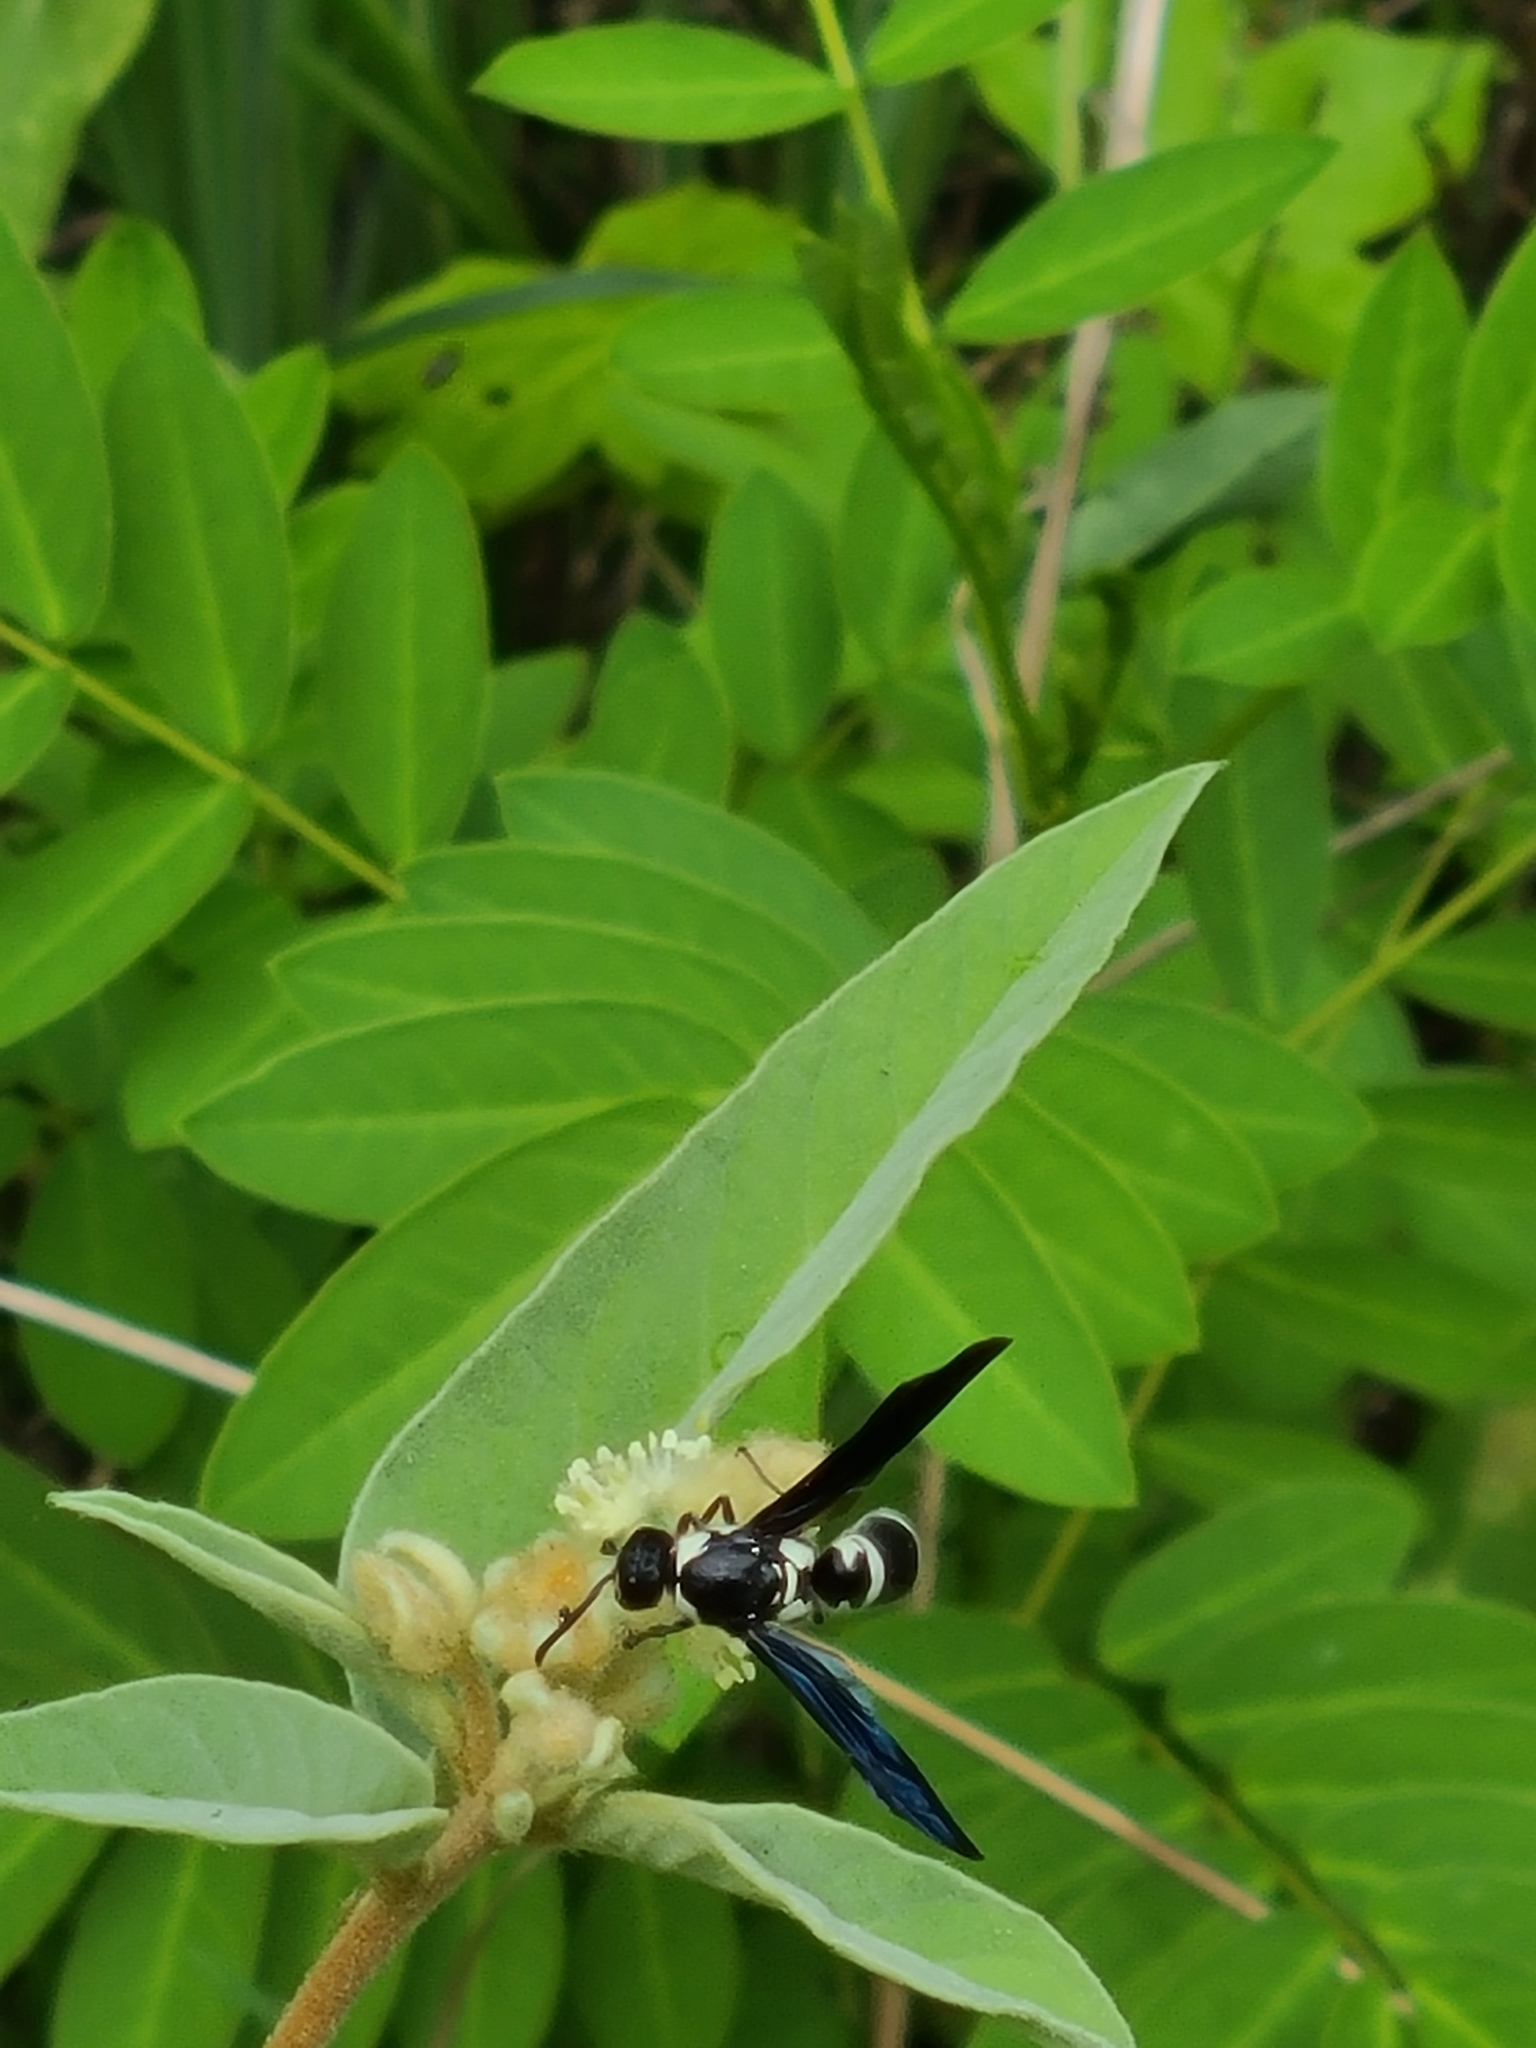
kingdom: Animalia
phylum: Arthropoda
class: Insecta
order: Hymenoptera
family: Eumenidae
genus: Pseudodynerus
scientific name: Pseudodynerus quadrisectus
